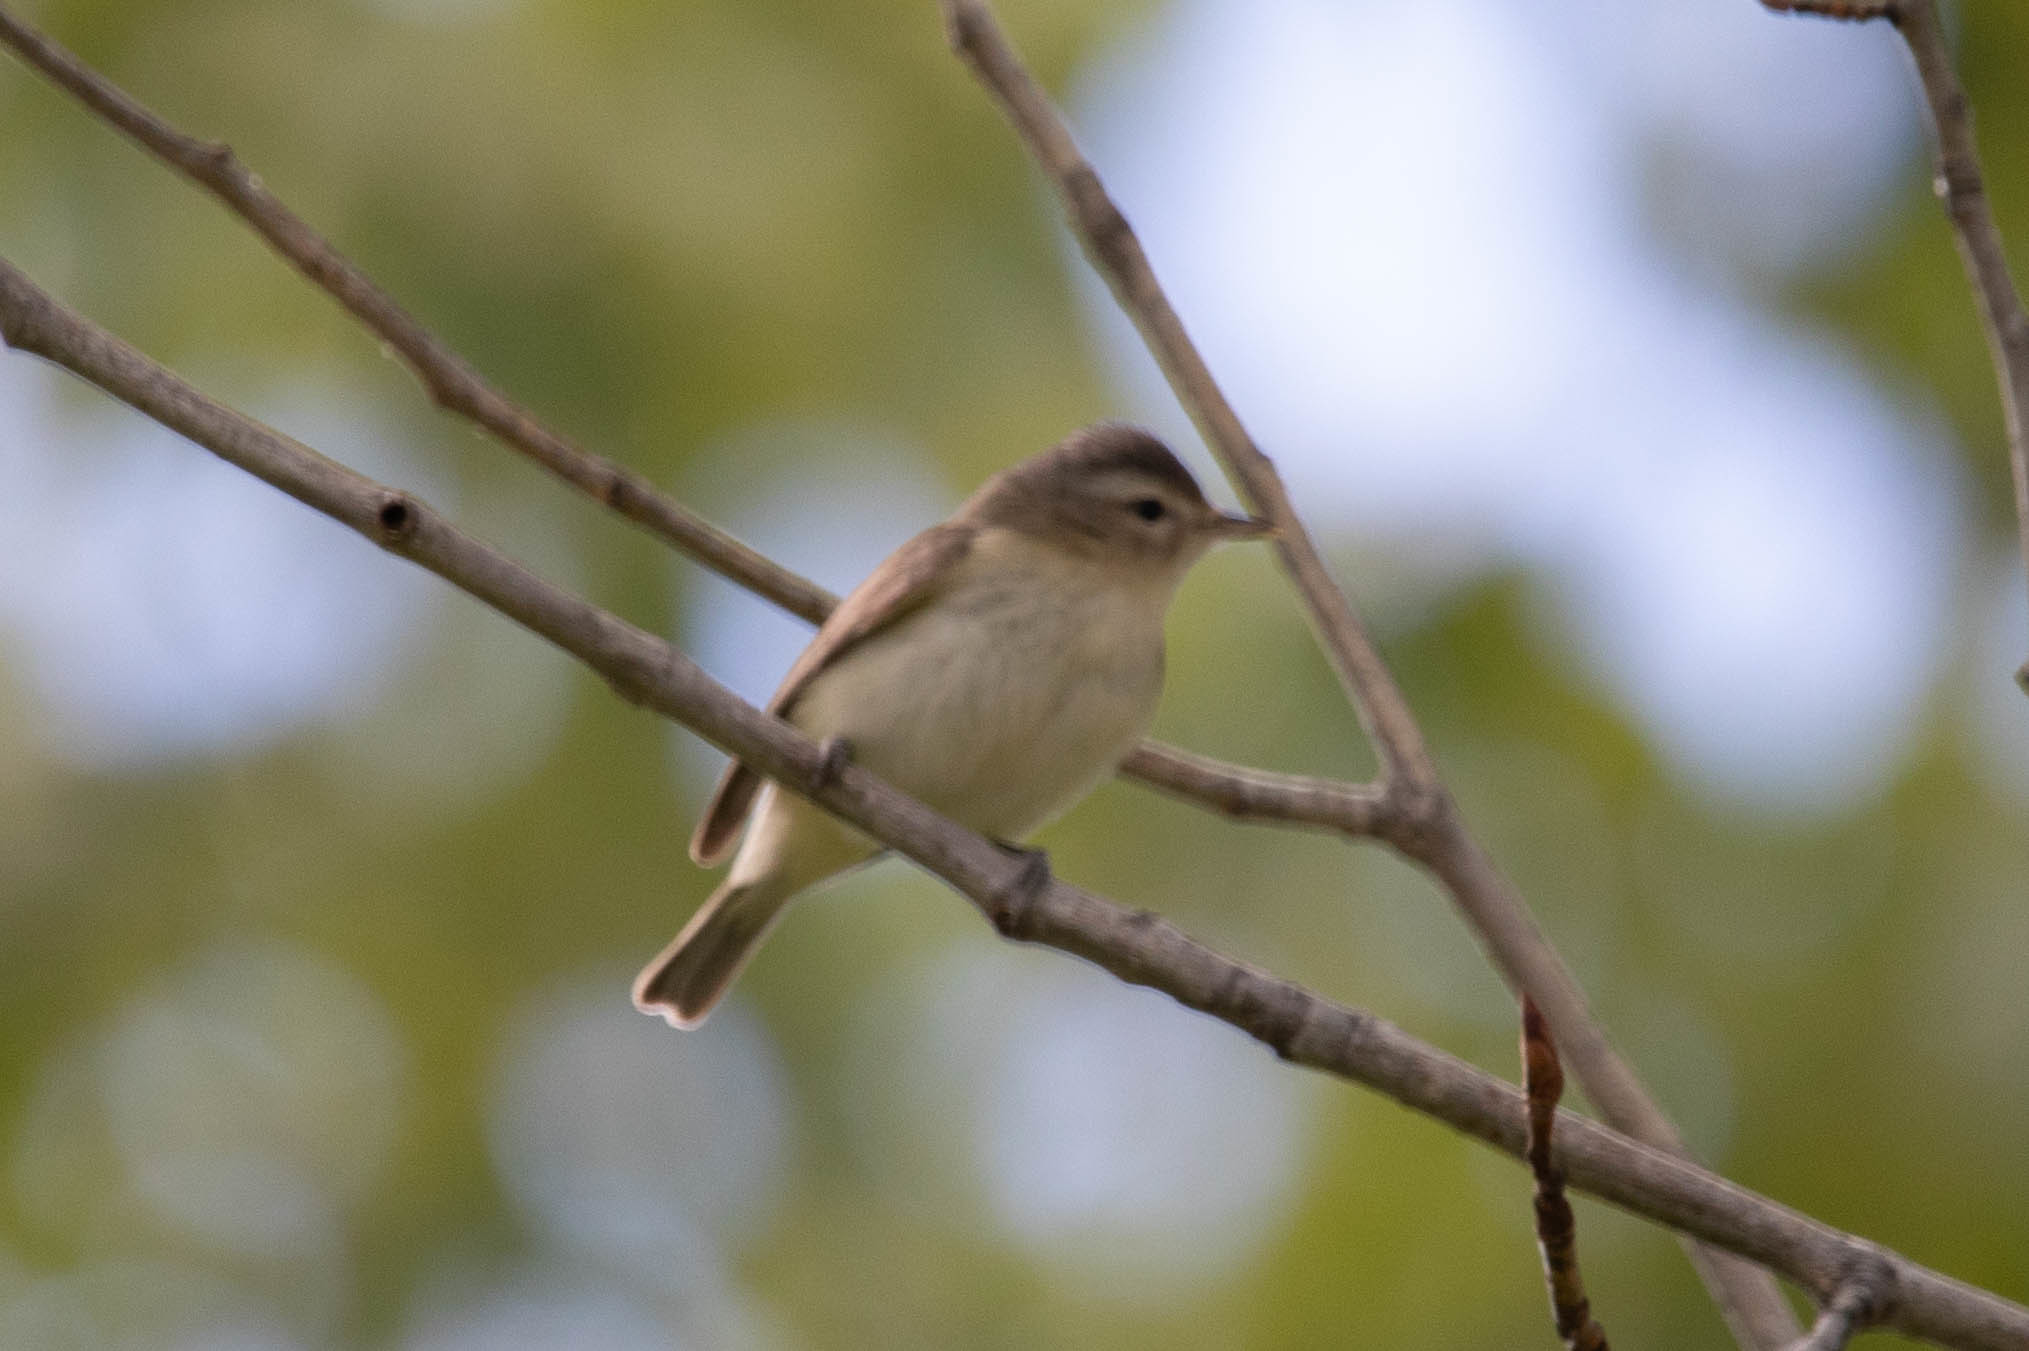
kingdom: Animalia
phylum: Chordata
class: Aves
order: Passeriformes
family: Vireonidae
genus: Vireo
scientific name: Vireo gilvus
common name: Warbling vireo
